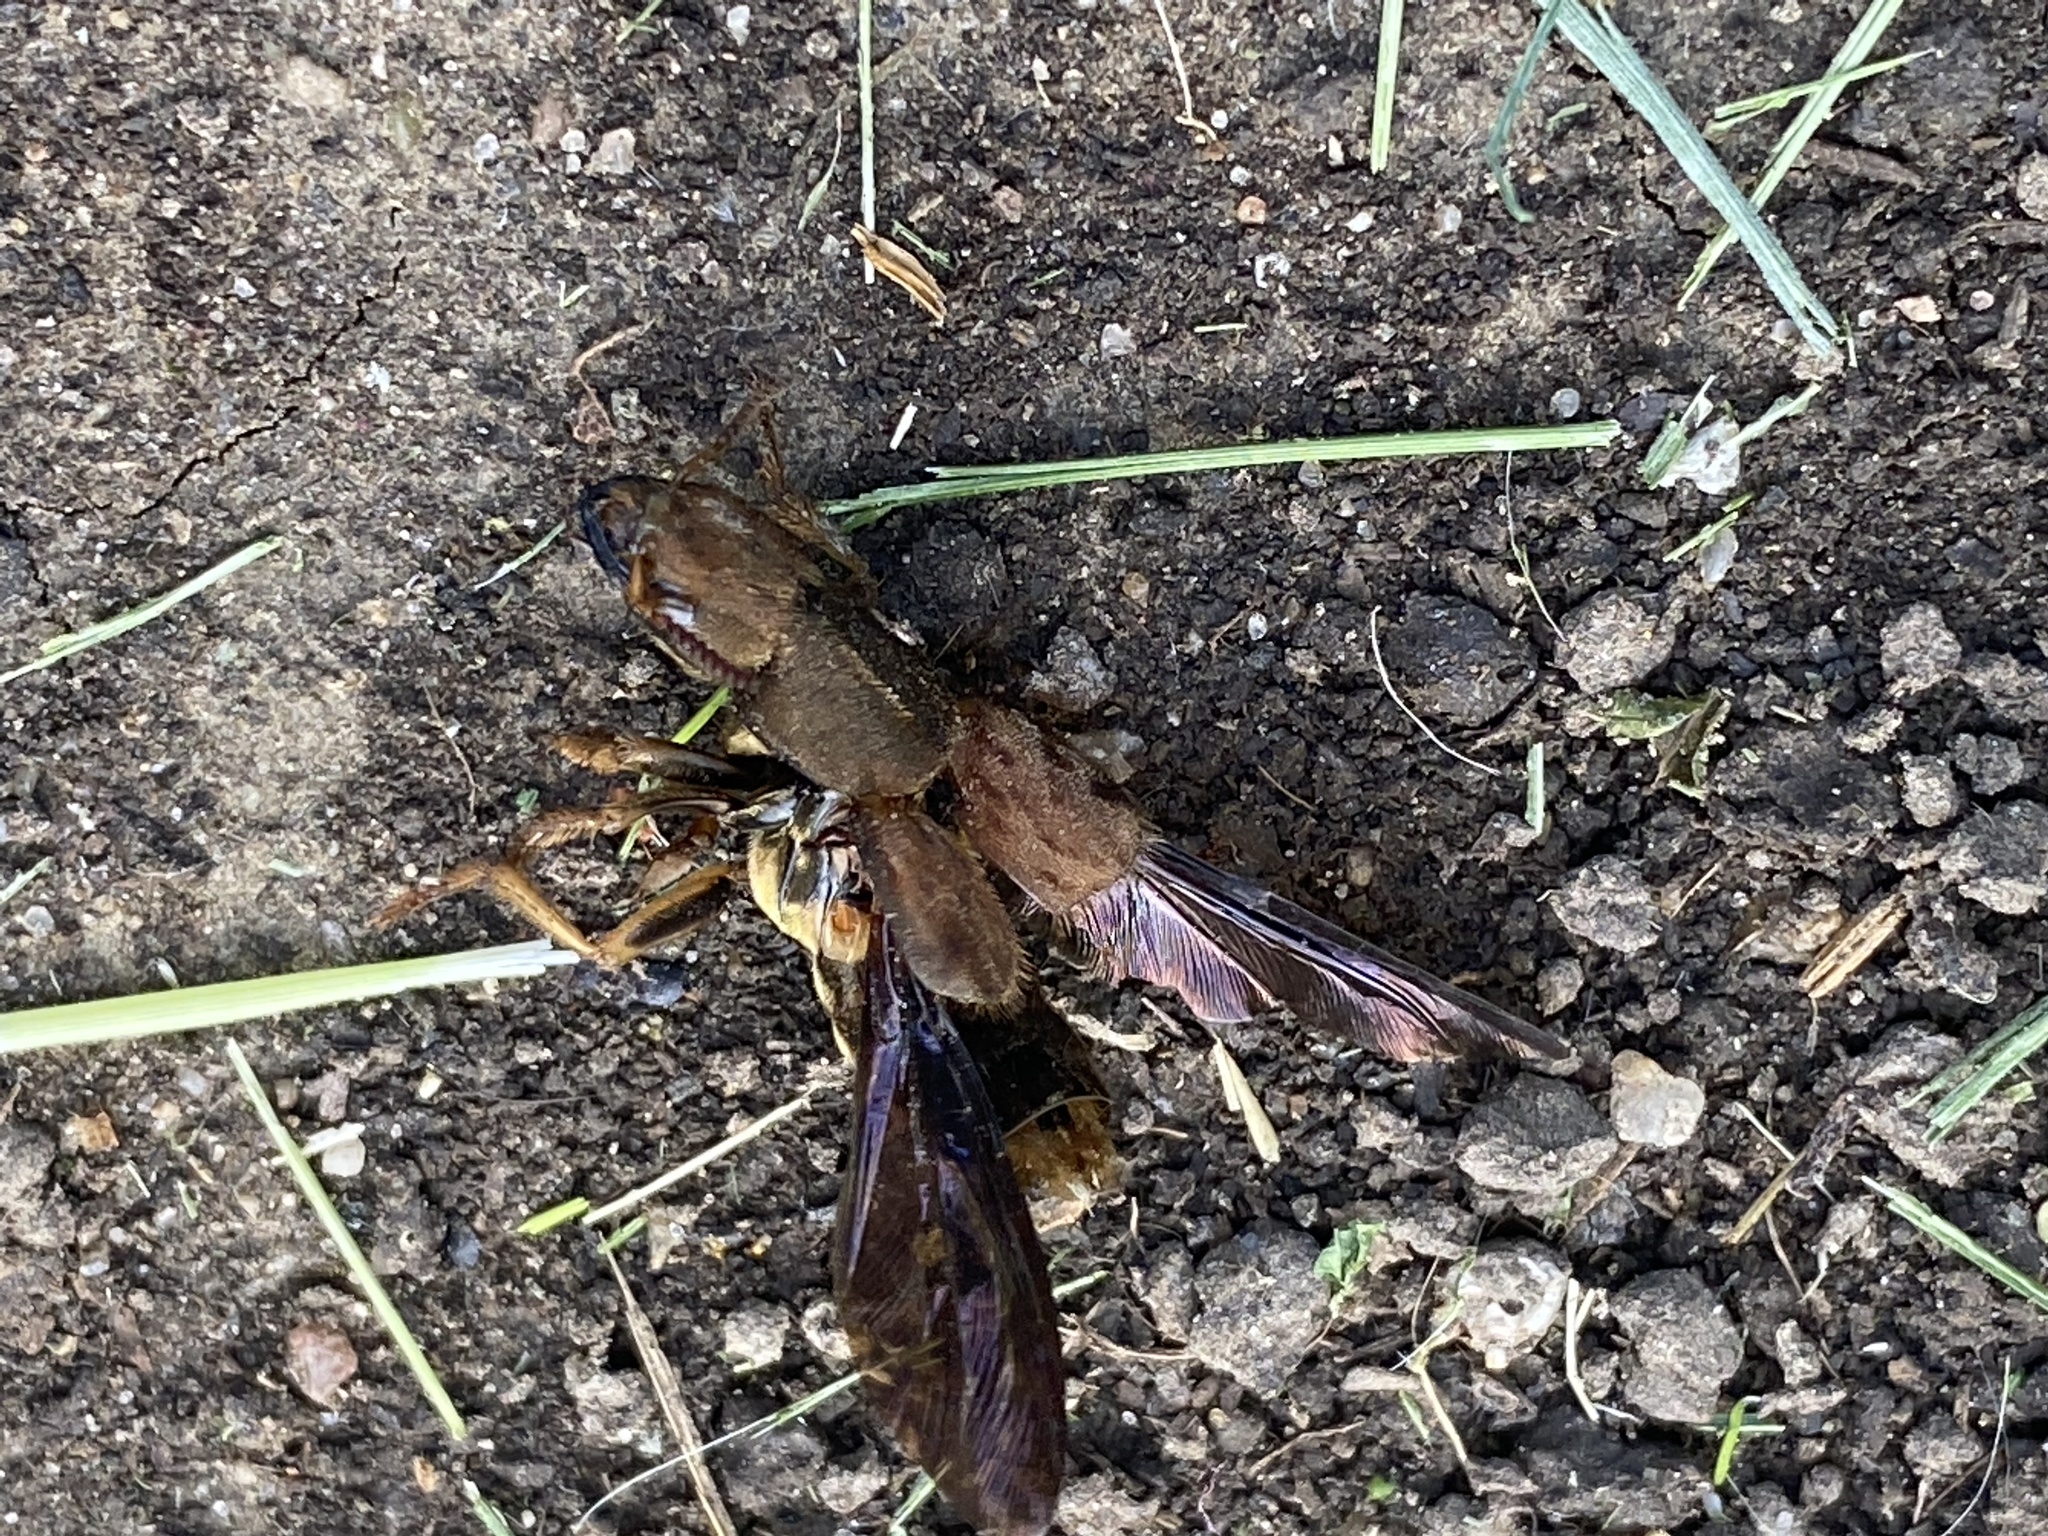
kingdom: Animalia
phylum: Arthropoda
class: Insecta
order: Coleoptera
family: Staphylinidae
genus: Platydracus
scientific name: Platydracus maculosus
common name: Brown rove beetle
